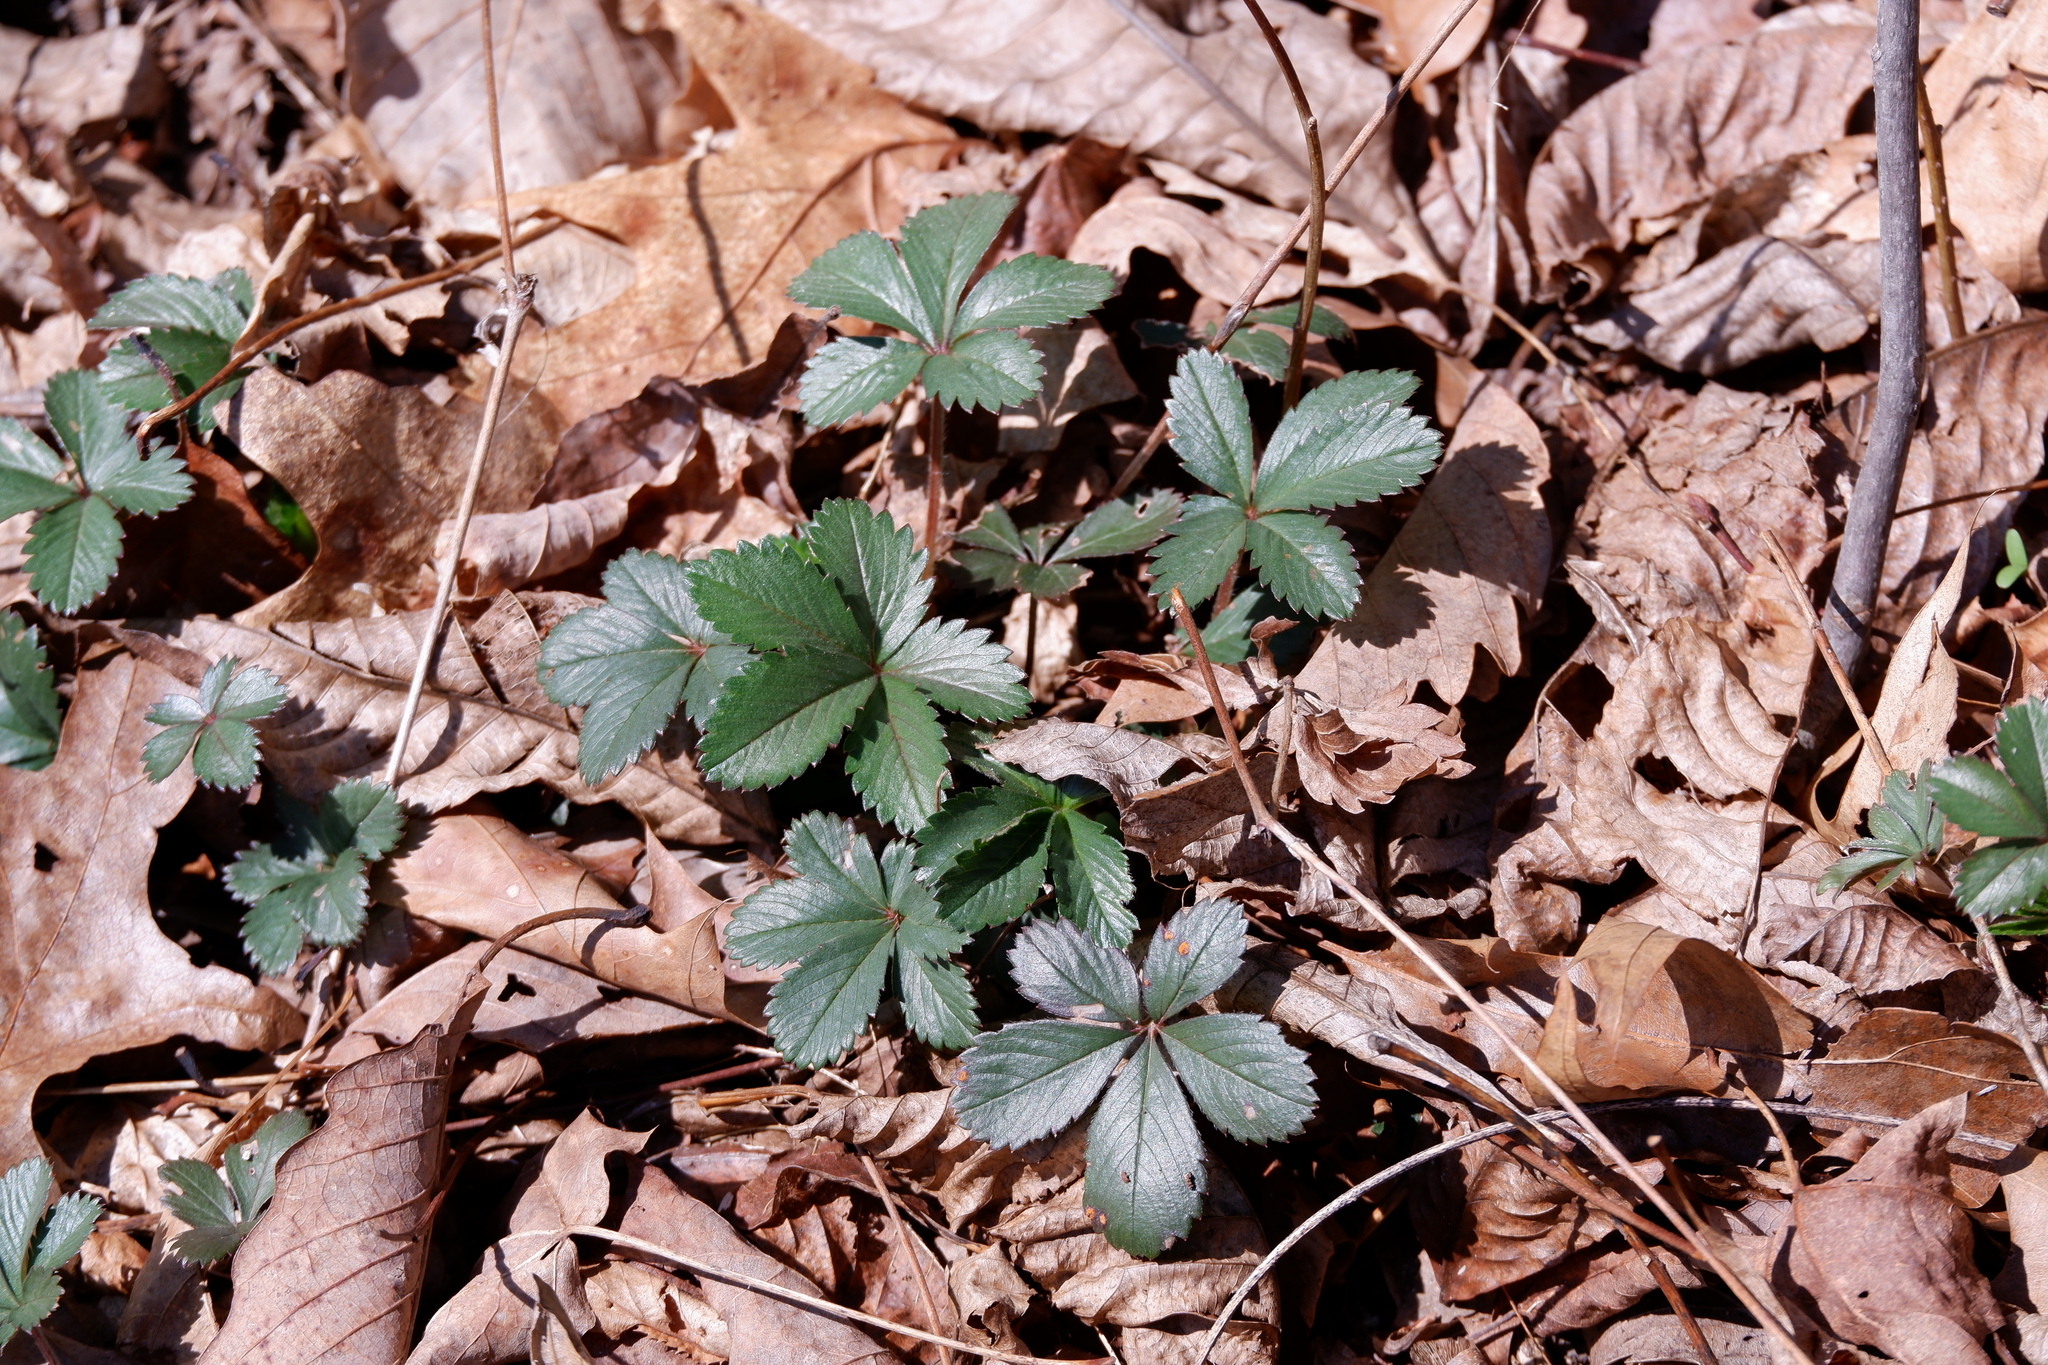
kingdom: Plantae
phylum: Tracheophyta
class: Magnoliopsida
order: Rosales
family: Rosaceae
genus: Potentilla
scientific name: Potentilla canadensis
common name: Canada cinquefoil
